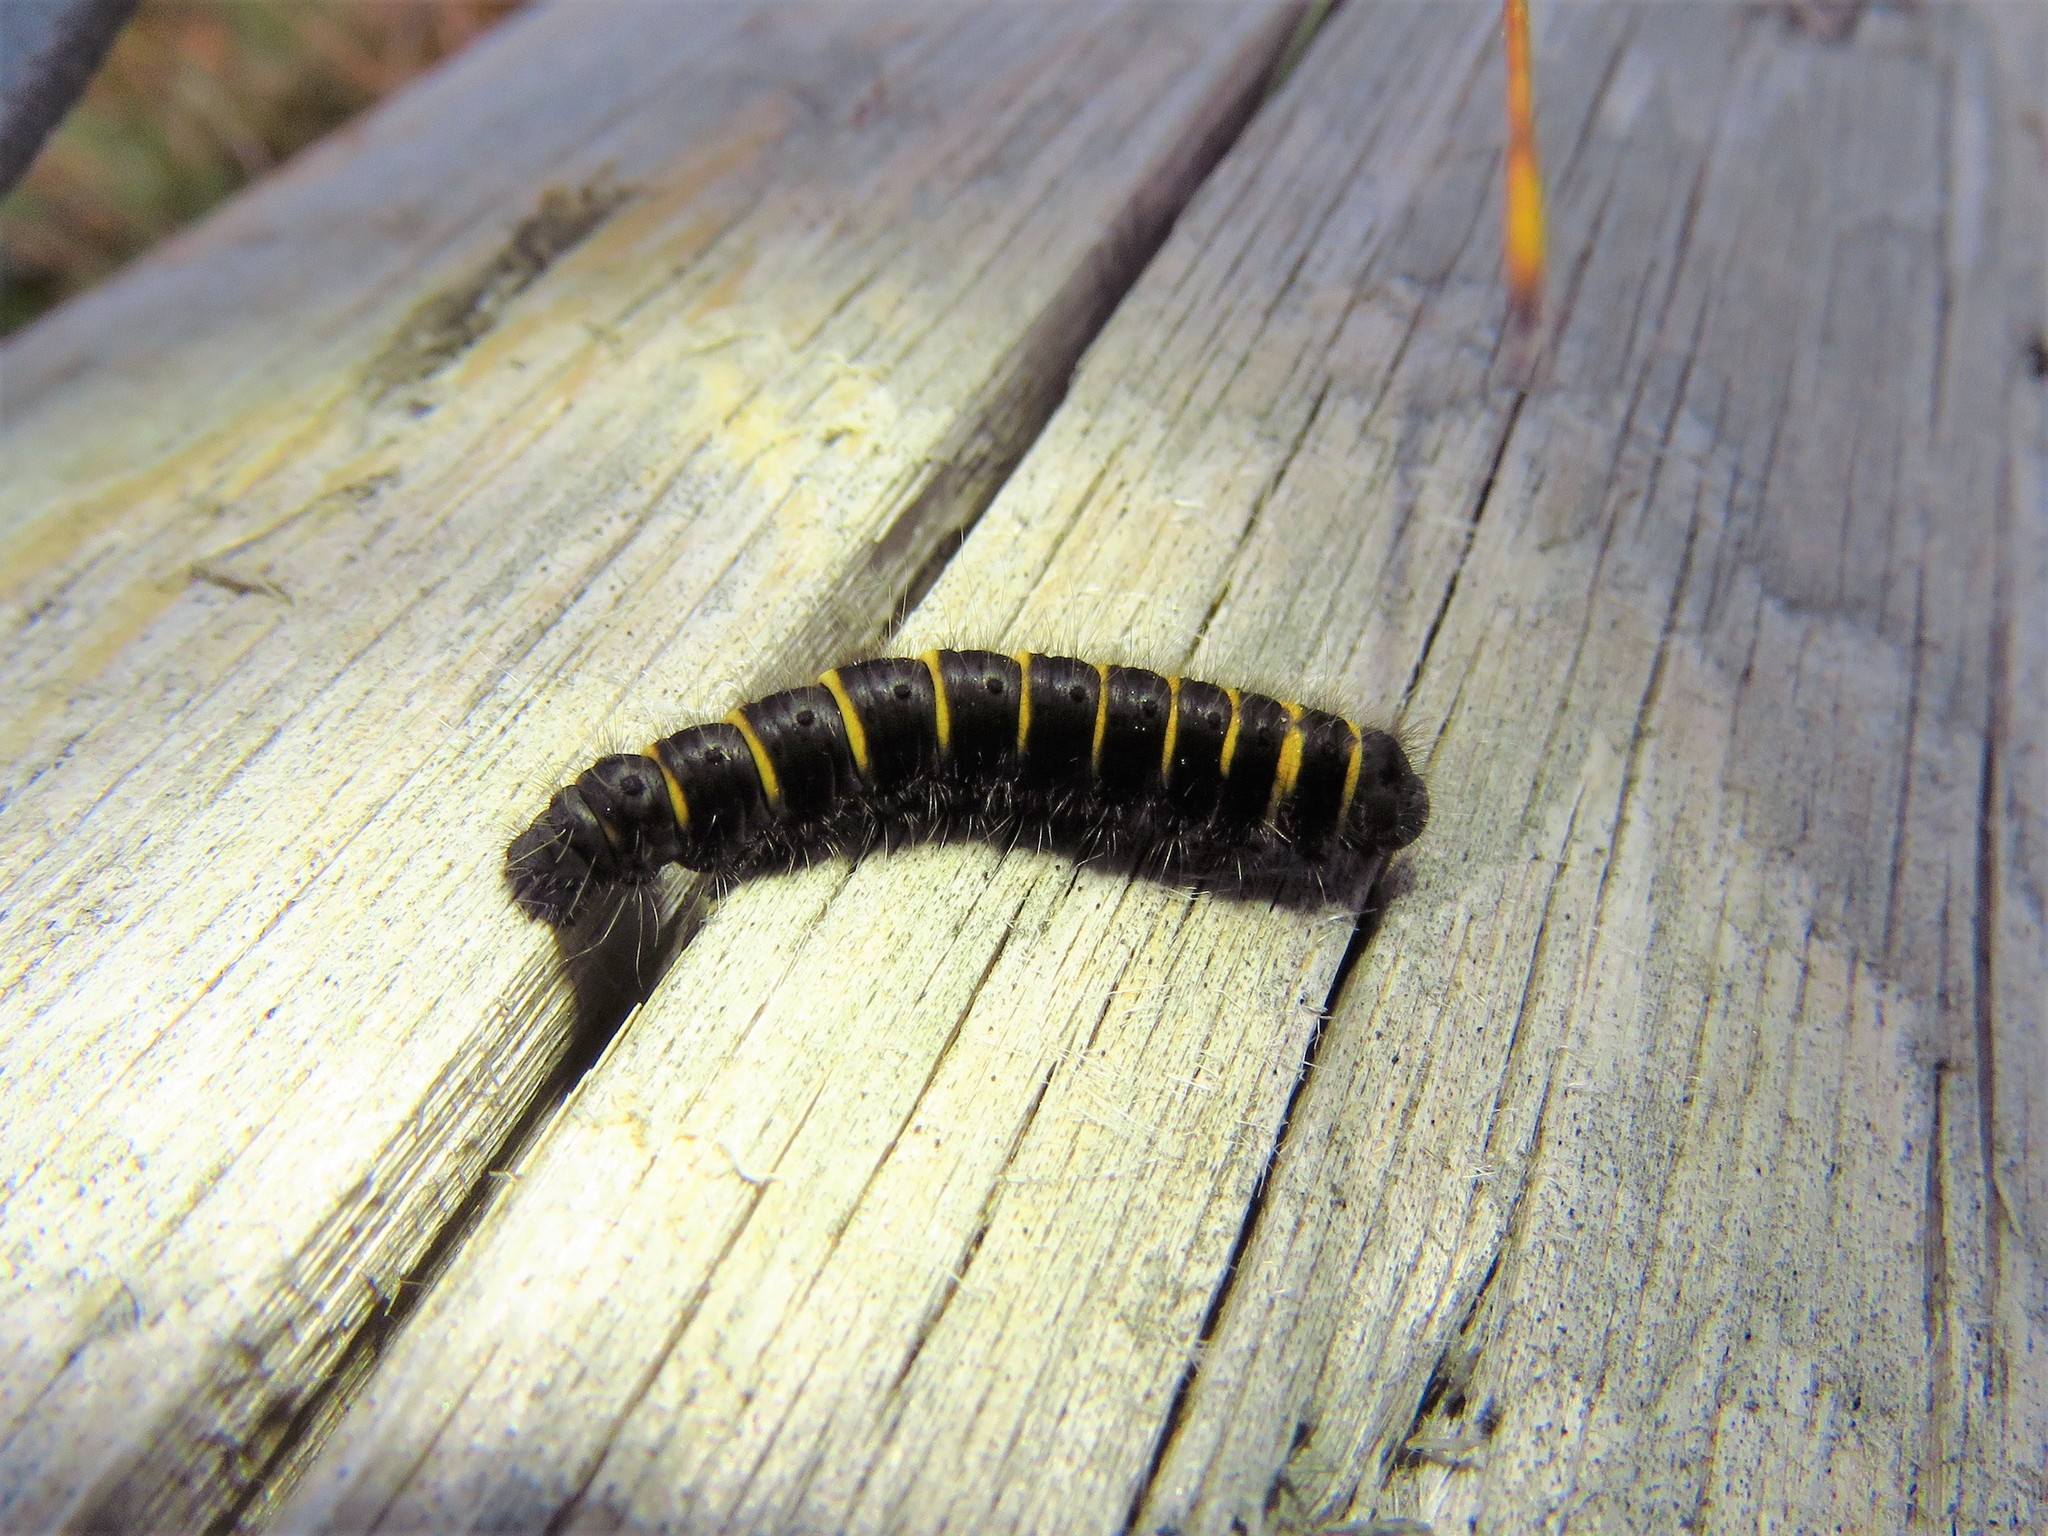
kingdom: Animalia
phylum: Arthropoda
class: Insecta
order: Lepidoptera
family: Lasiocampidae
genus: Macrothylacia
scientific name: Macrothylacia rubi
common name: Fox moth
